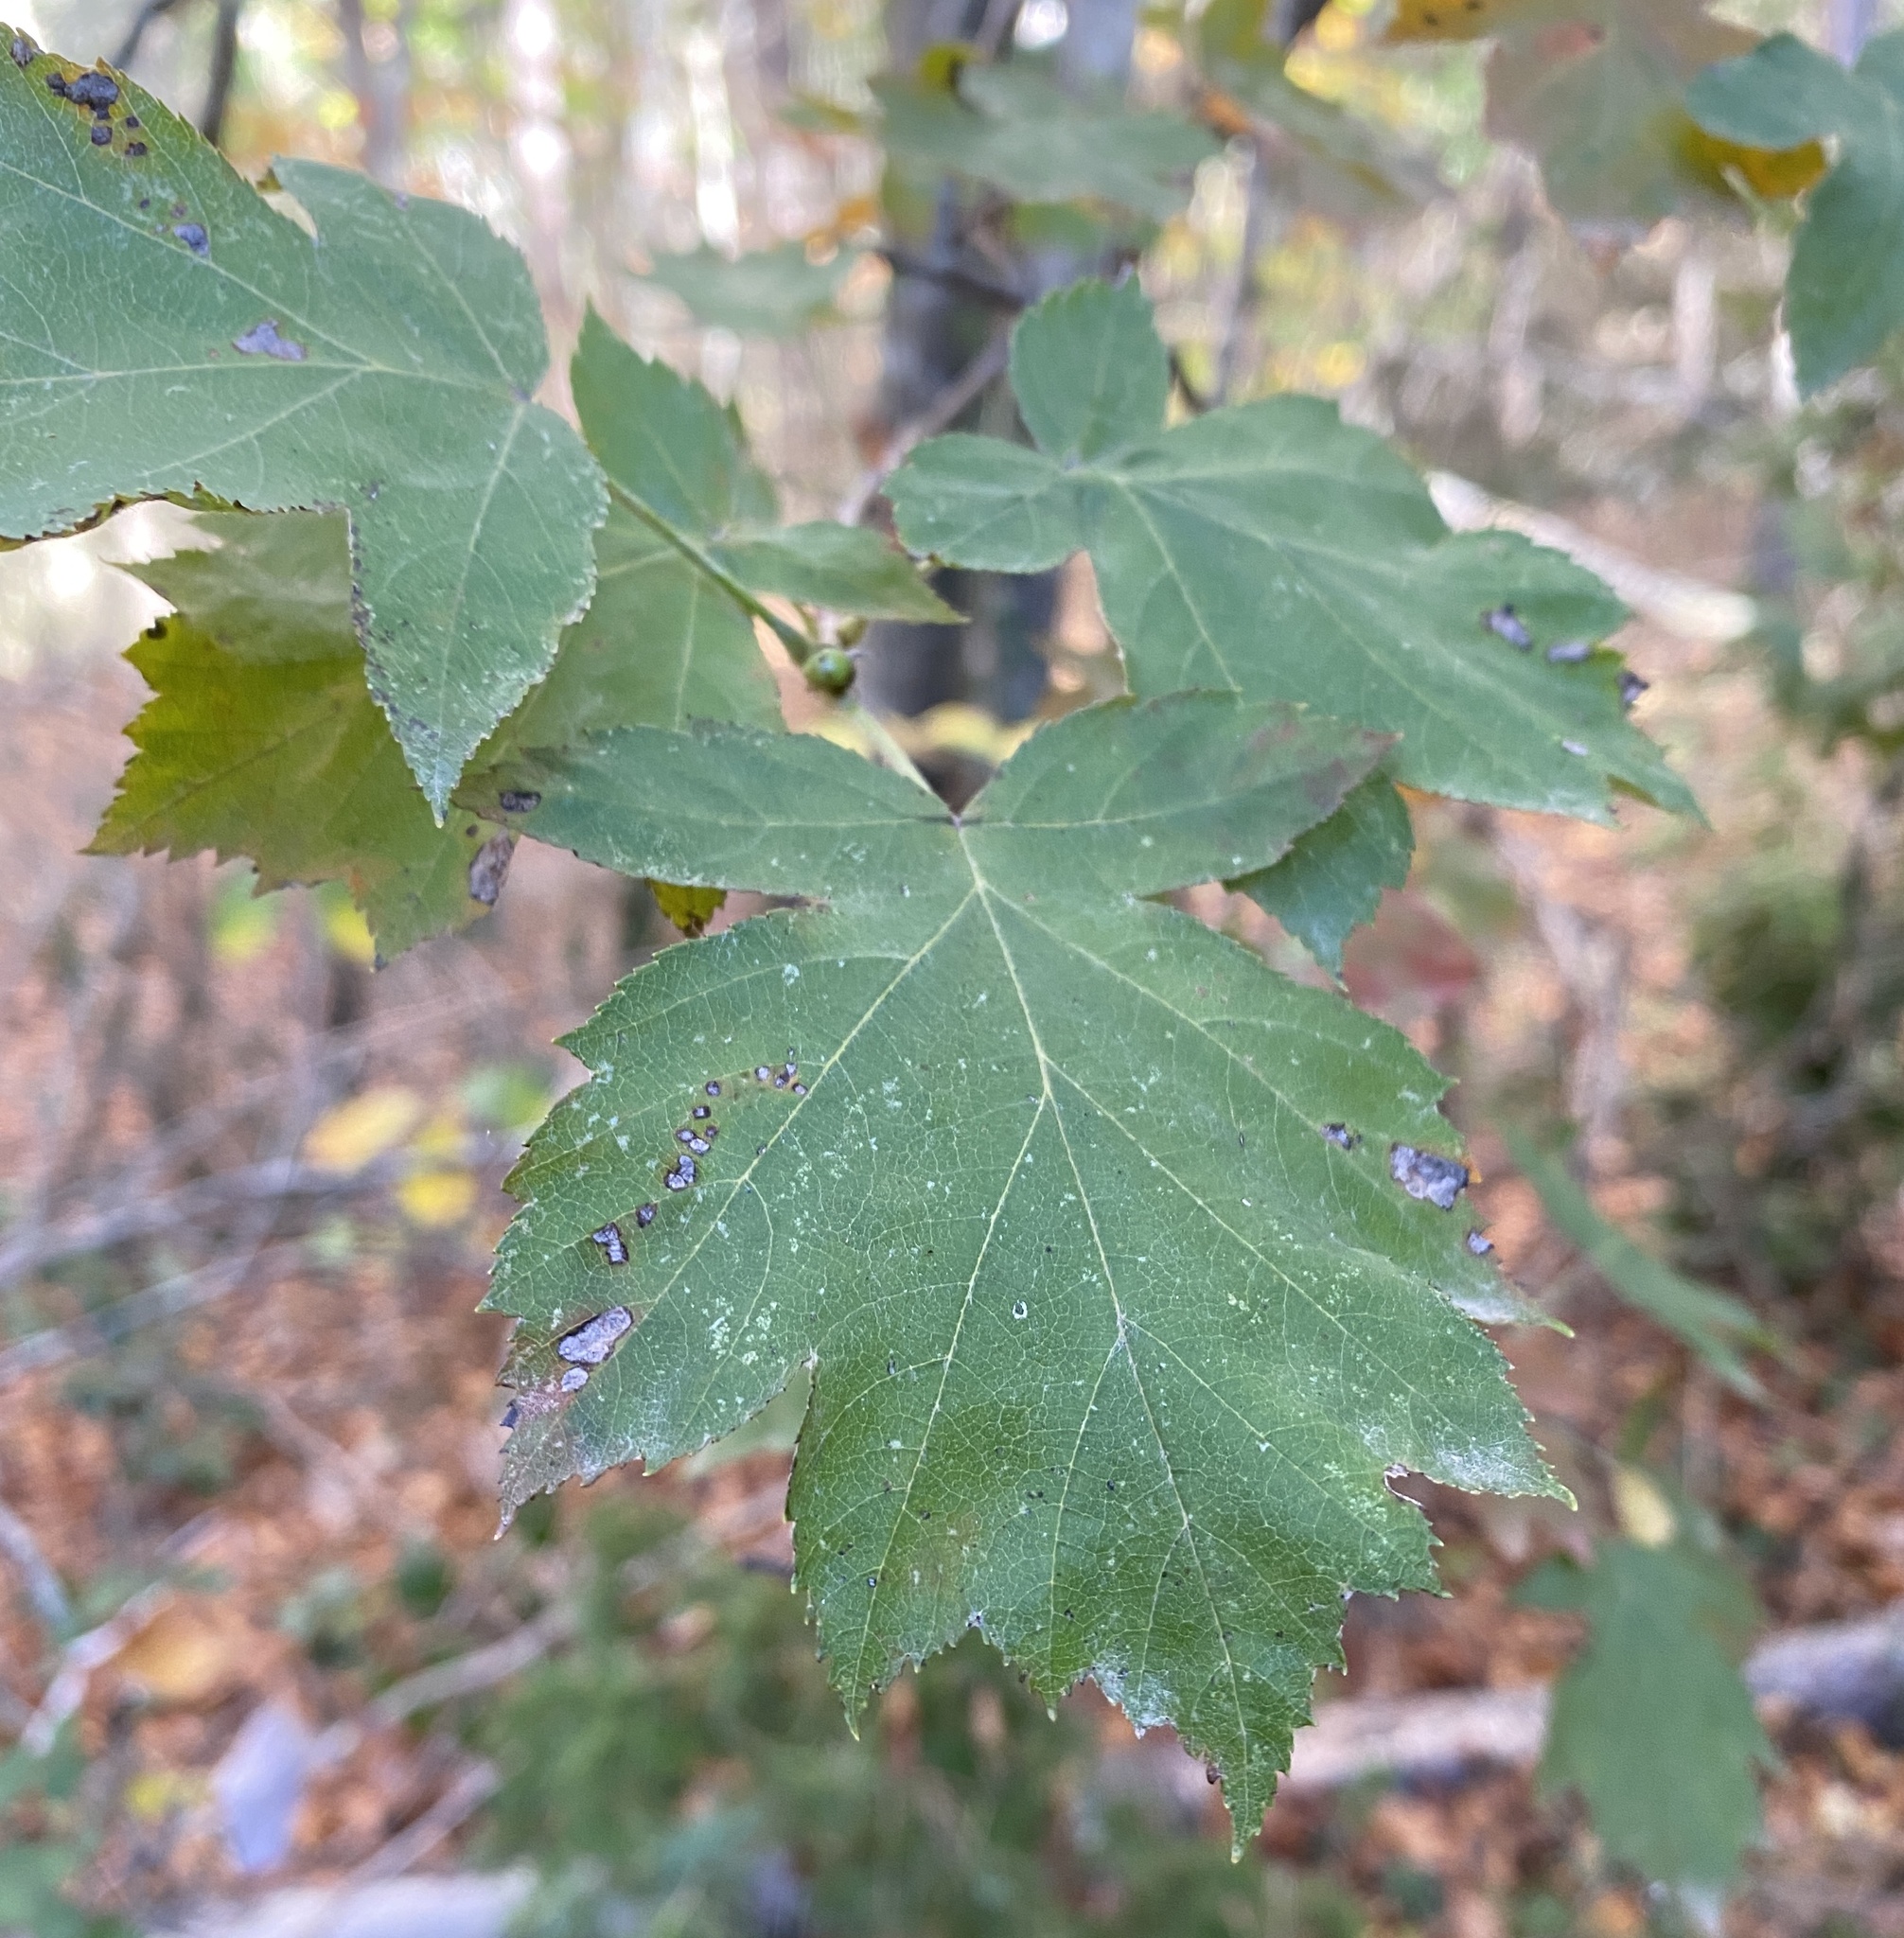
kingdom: Plantae
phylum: Tracheophyta
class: Magnoliopsida
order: Rosales
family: Rosaceae
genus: Torminalis
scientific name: Torminalis glaberrima
